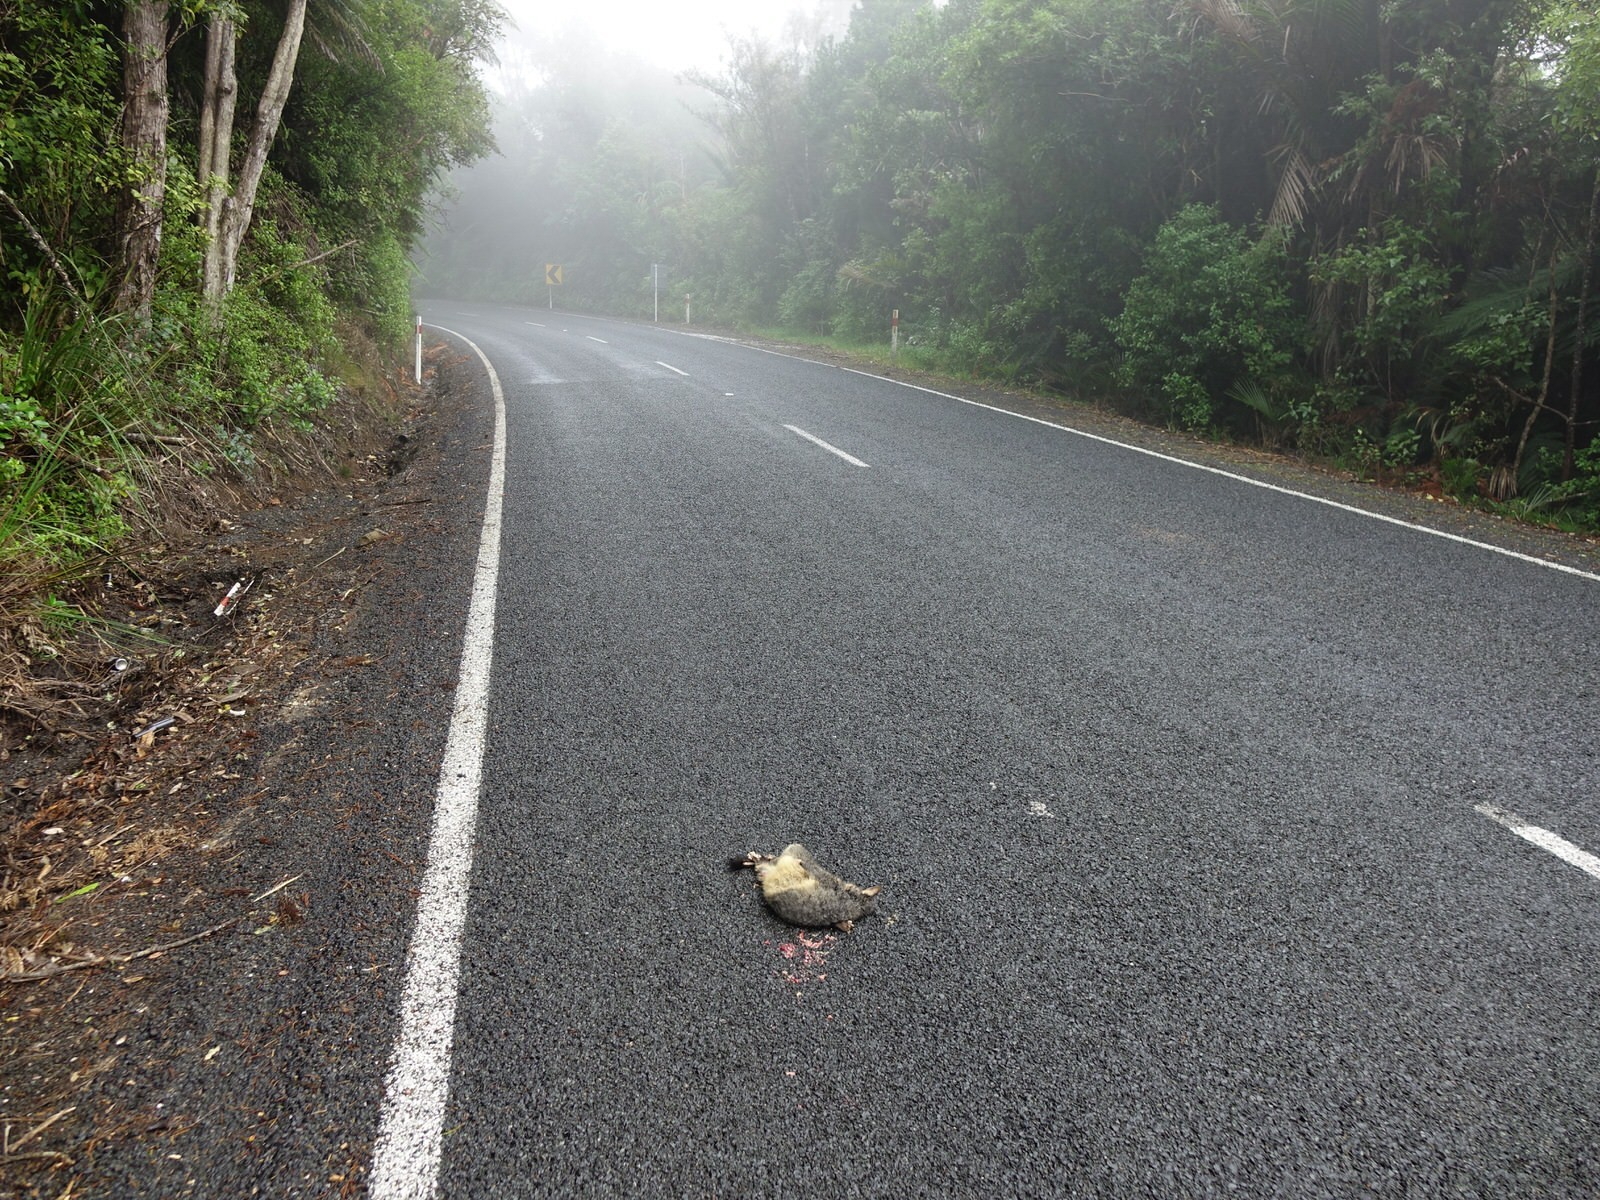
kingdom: Animalia
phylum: Chordata
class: Mammalia
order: Diprotodontia
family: Phalangeridae
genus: Trichosurus
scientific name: Trichosurus vulpecula
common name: Common brushtail
